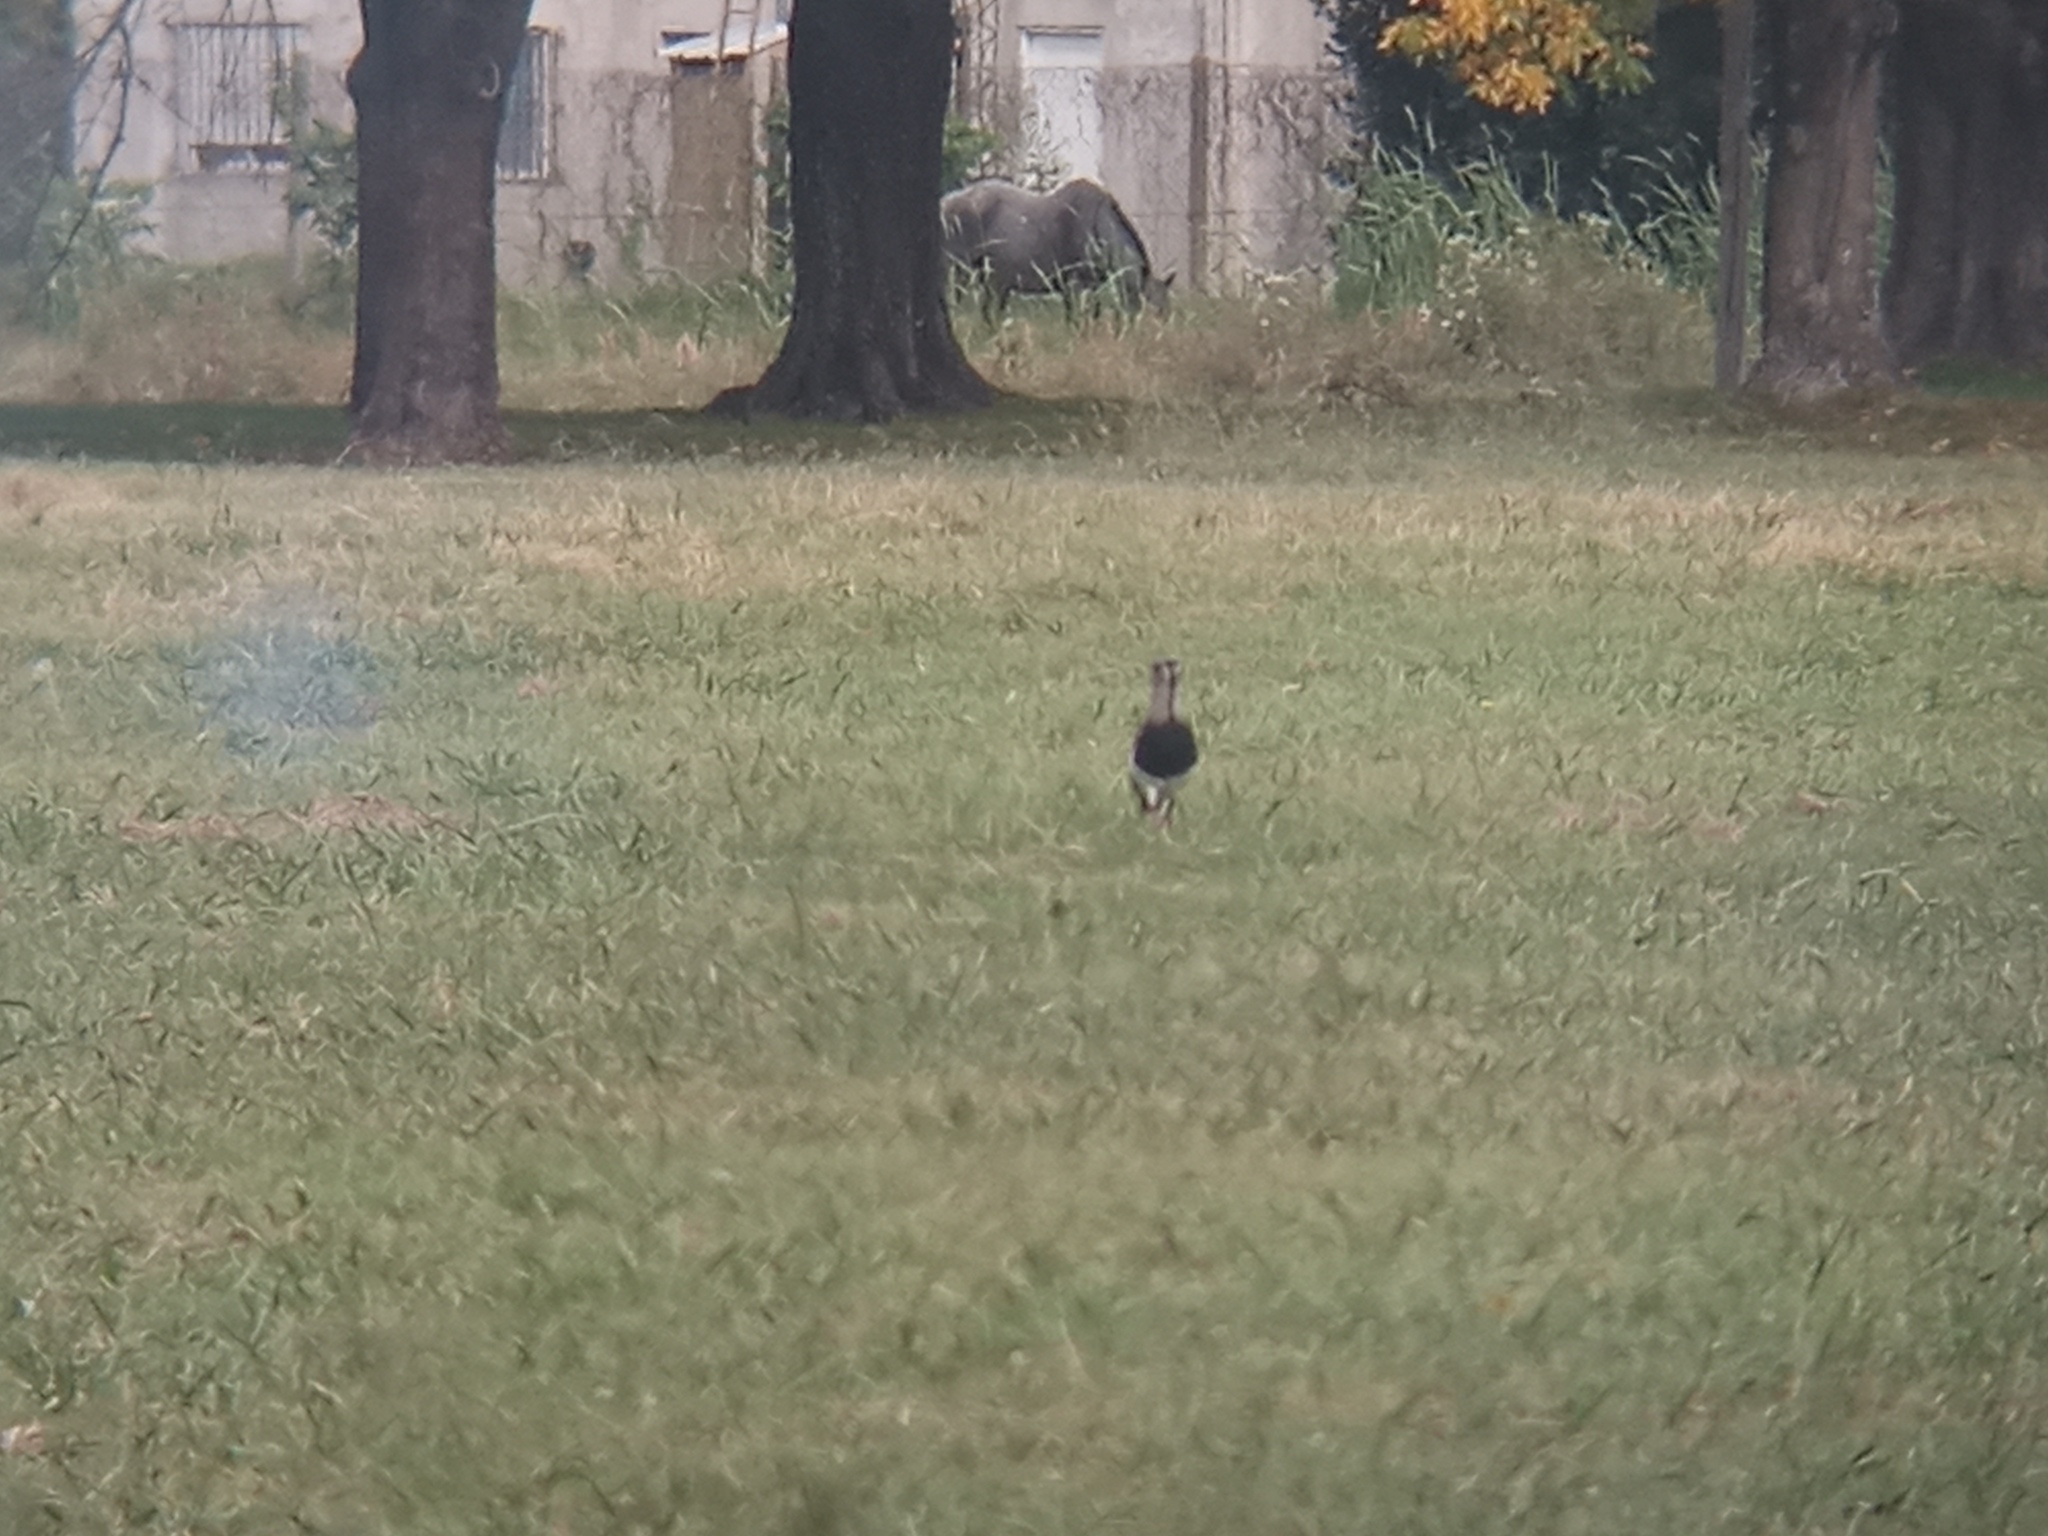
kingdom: Animalia
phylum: Chordata
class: Aves
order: Charadriiformes
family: Charadriidae
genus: Vanellus
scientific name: Vanellus chilensis
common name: Southern lapwing
